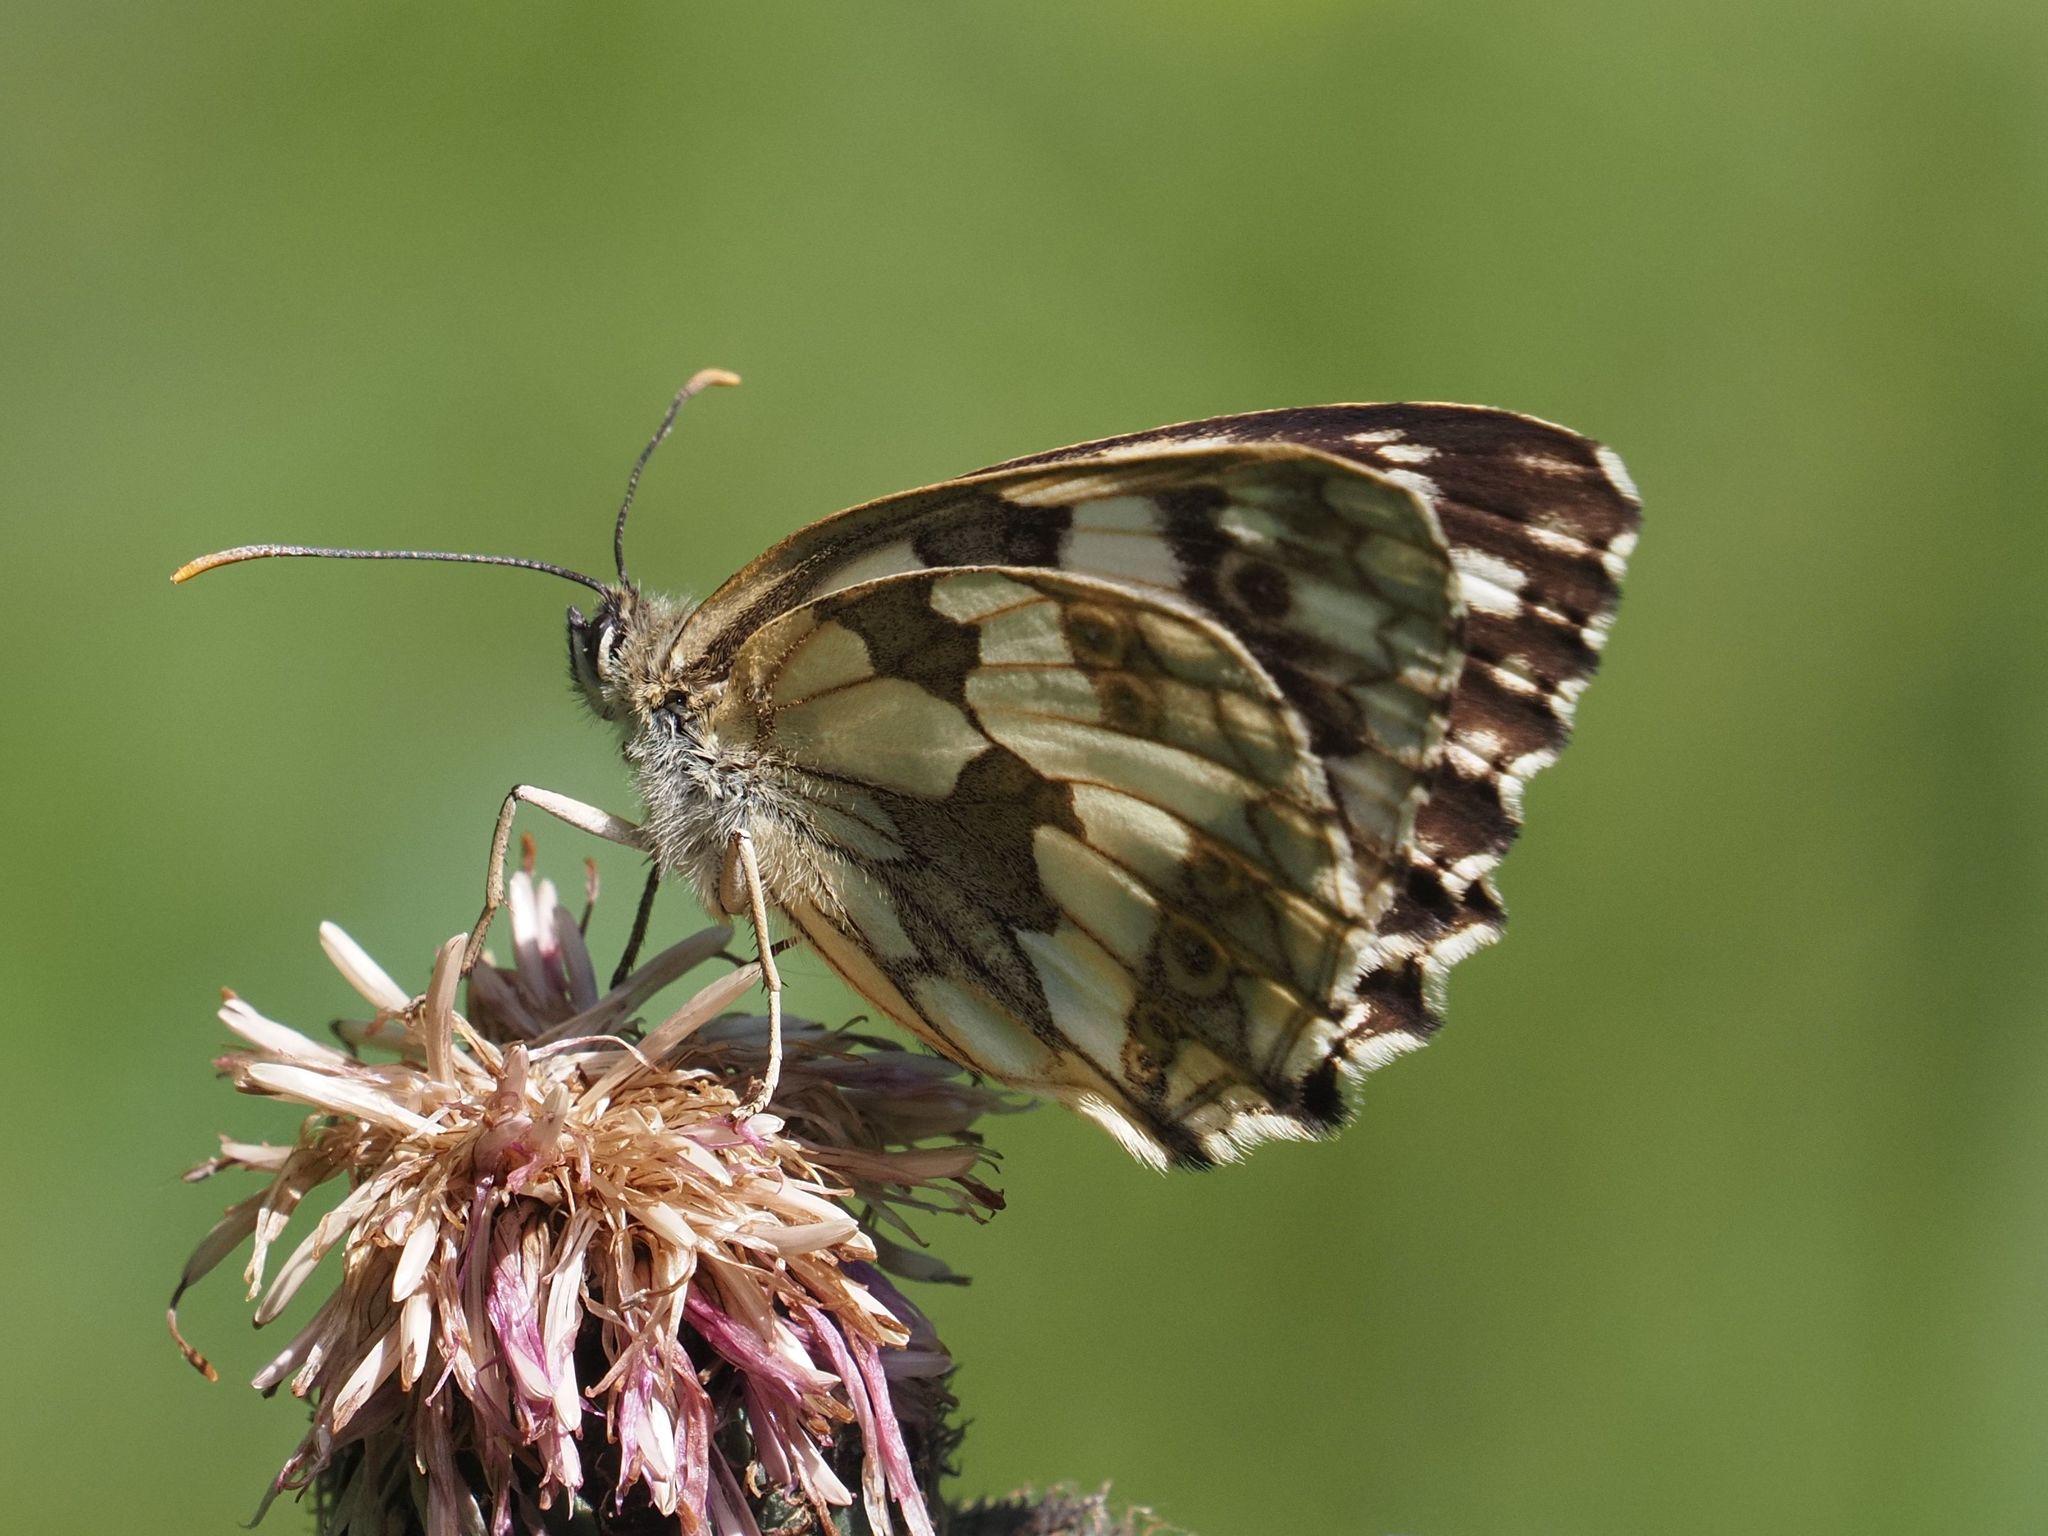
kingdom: Animalia
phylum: Arthropoda
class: Insecta
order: Lepidoptera
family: Nymphalidae
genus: Melanargia
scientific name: Melanargia galathea
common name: Marbled white
